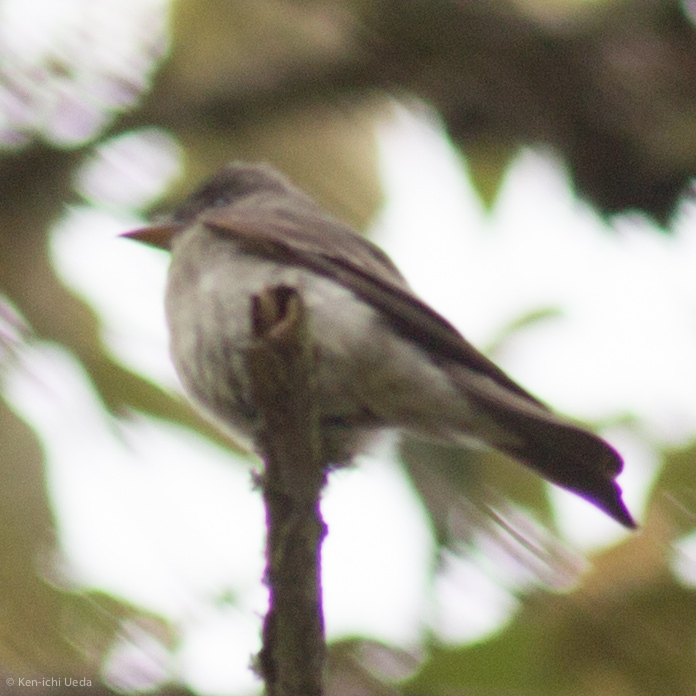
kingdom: Animalia
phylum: Chordata
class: Aves
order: Passeriformes
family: Tyrannidae
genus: Contopus
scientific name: Contopus virens
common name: Eastern wood-pewee
